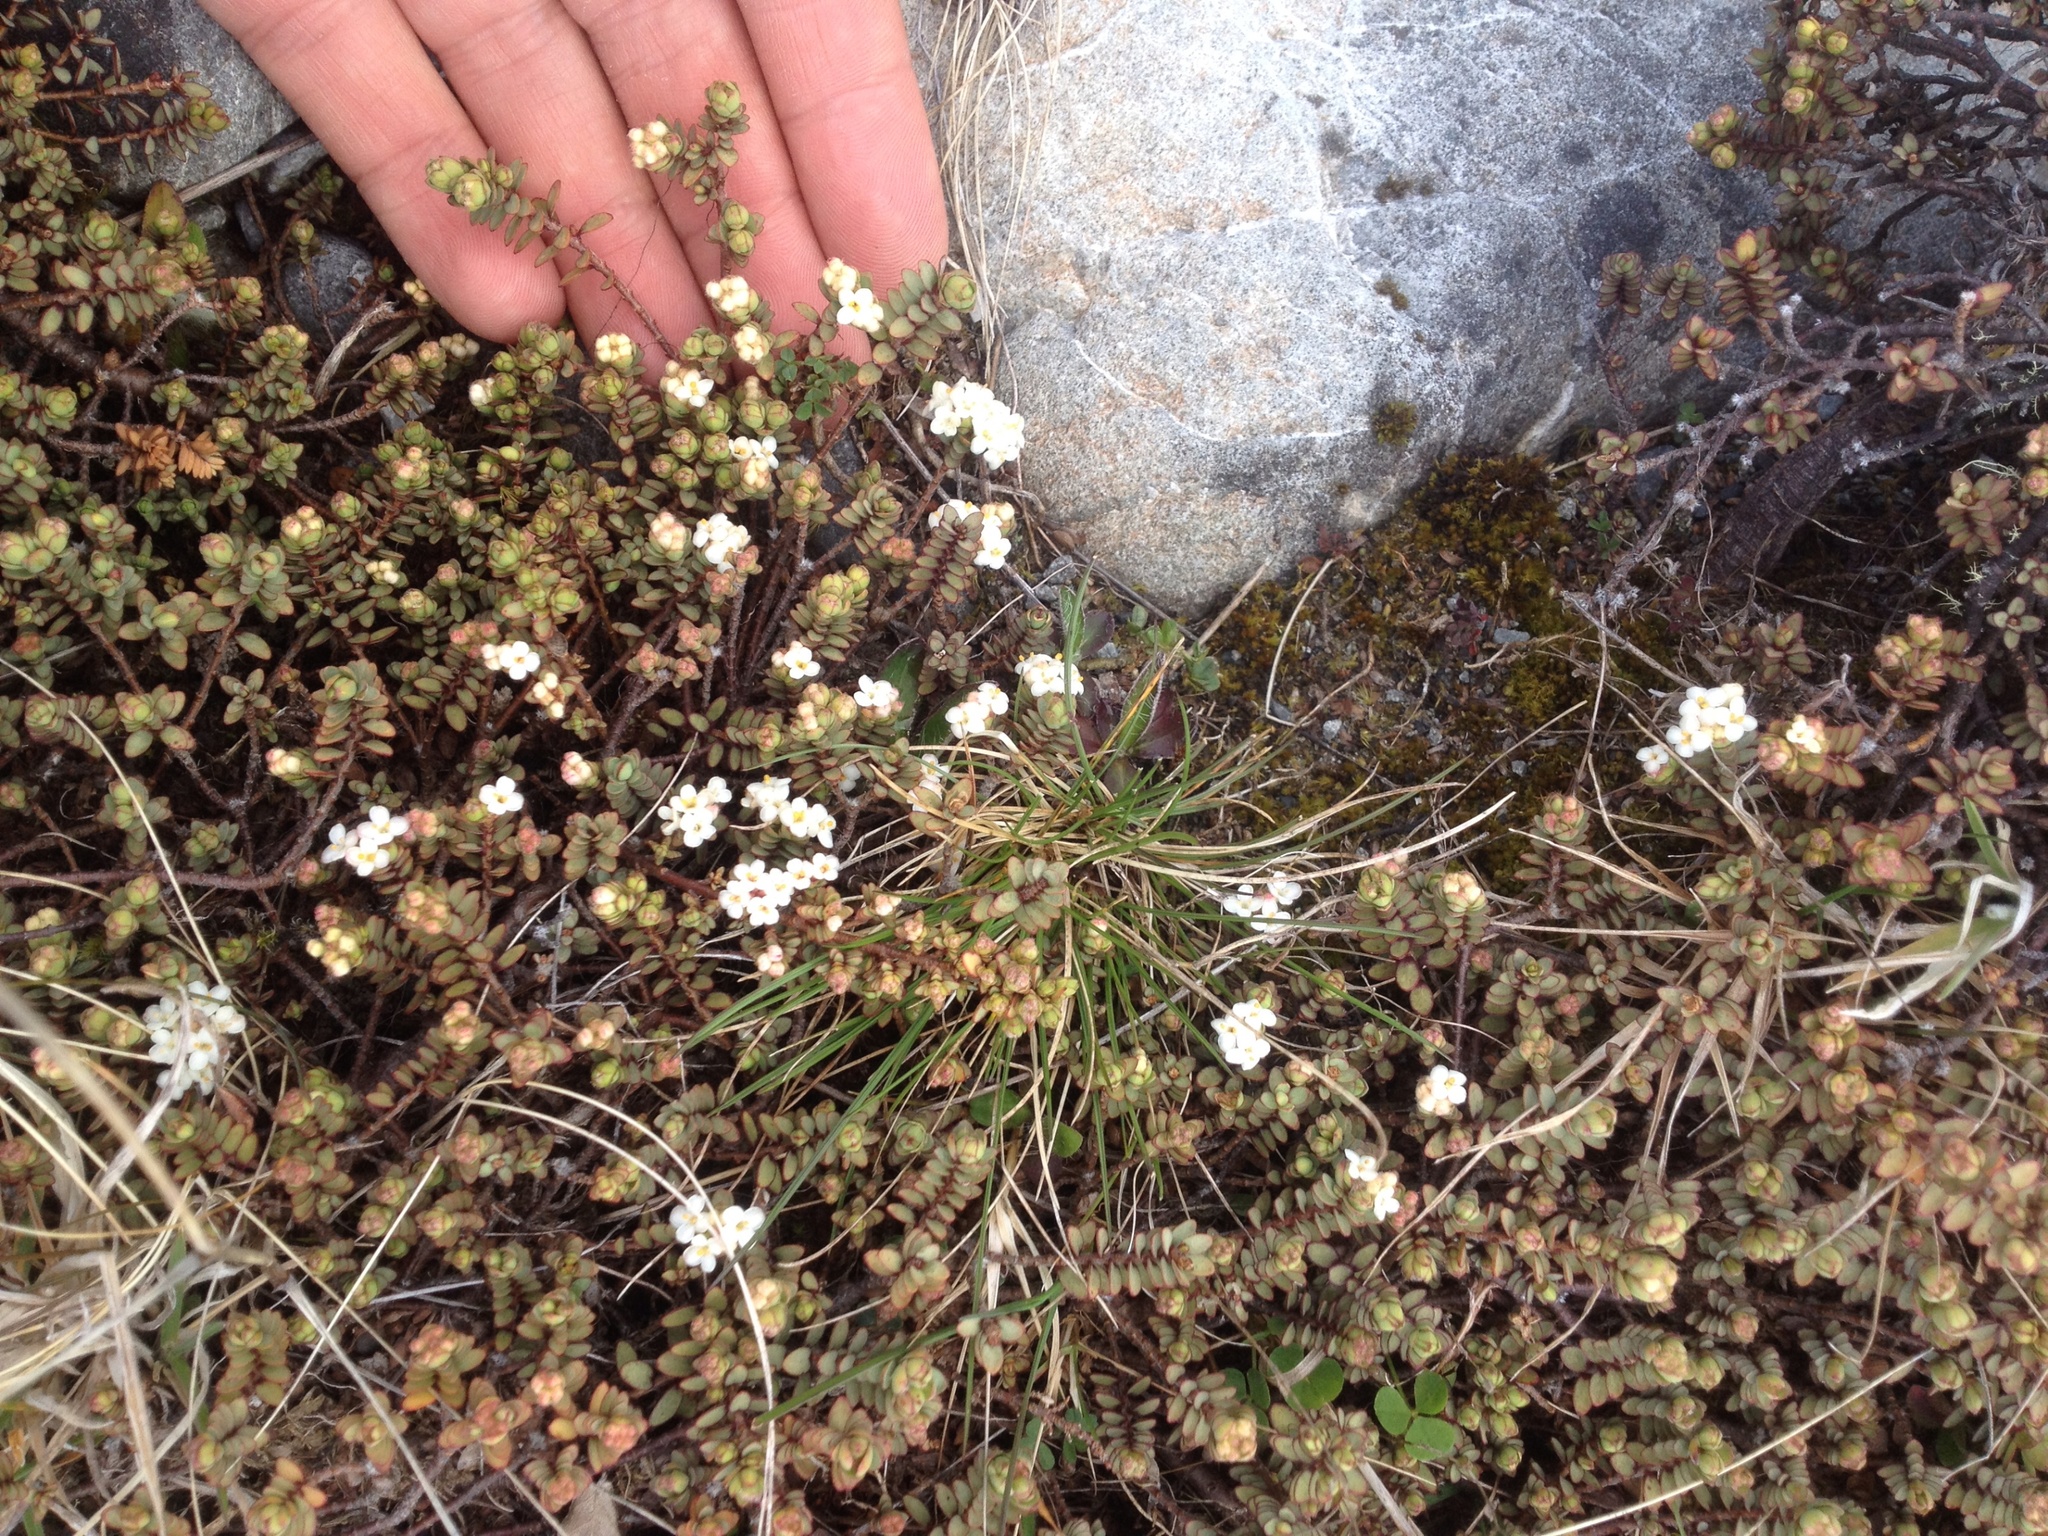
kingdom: Plantae
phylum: Tracheophyta
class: Magnoliopsida
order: Malvales
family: Thymelaeaceae
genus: Pimelea
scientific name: Pimelea prostrata
